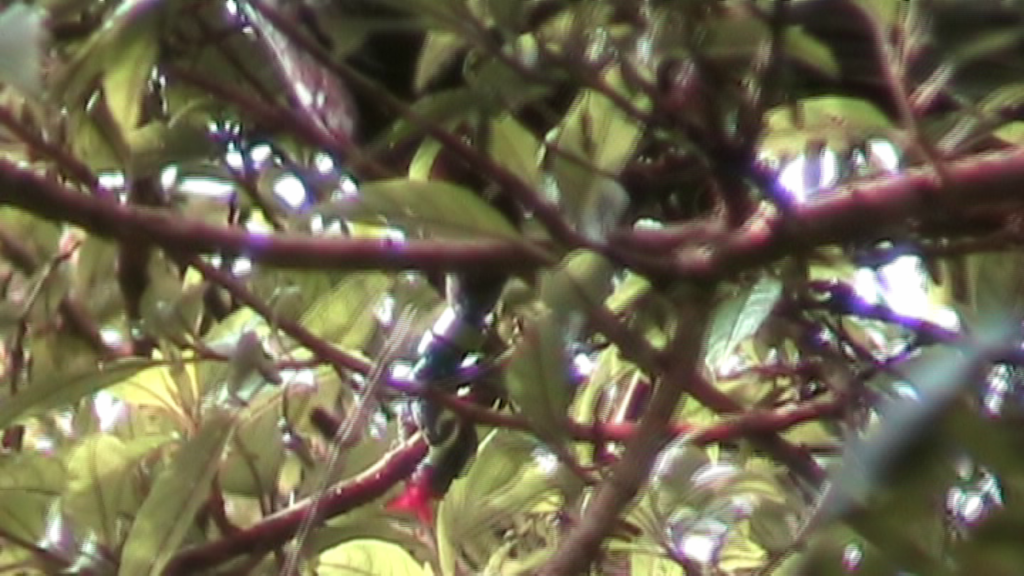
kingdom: Plantae
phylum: Tracheophyta
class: Magnoliopsida
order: Myrtales
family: Onagraceae
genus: Fuchsia
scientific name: Fuchsia excorticata
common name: Tree fuchsia
